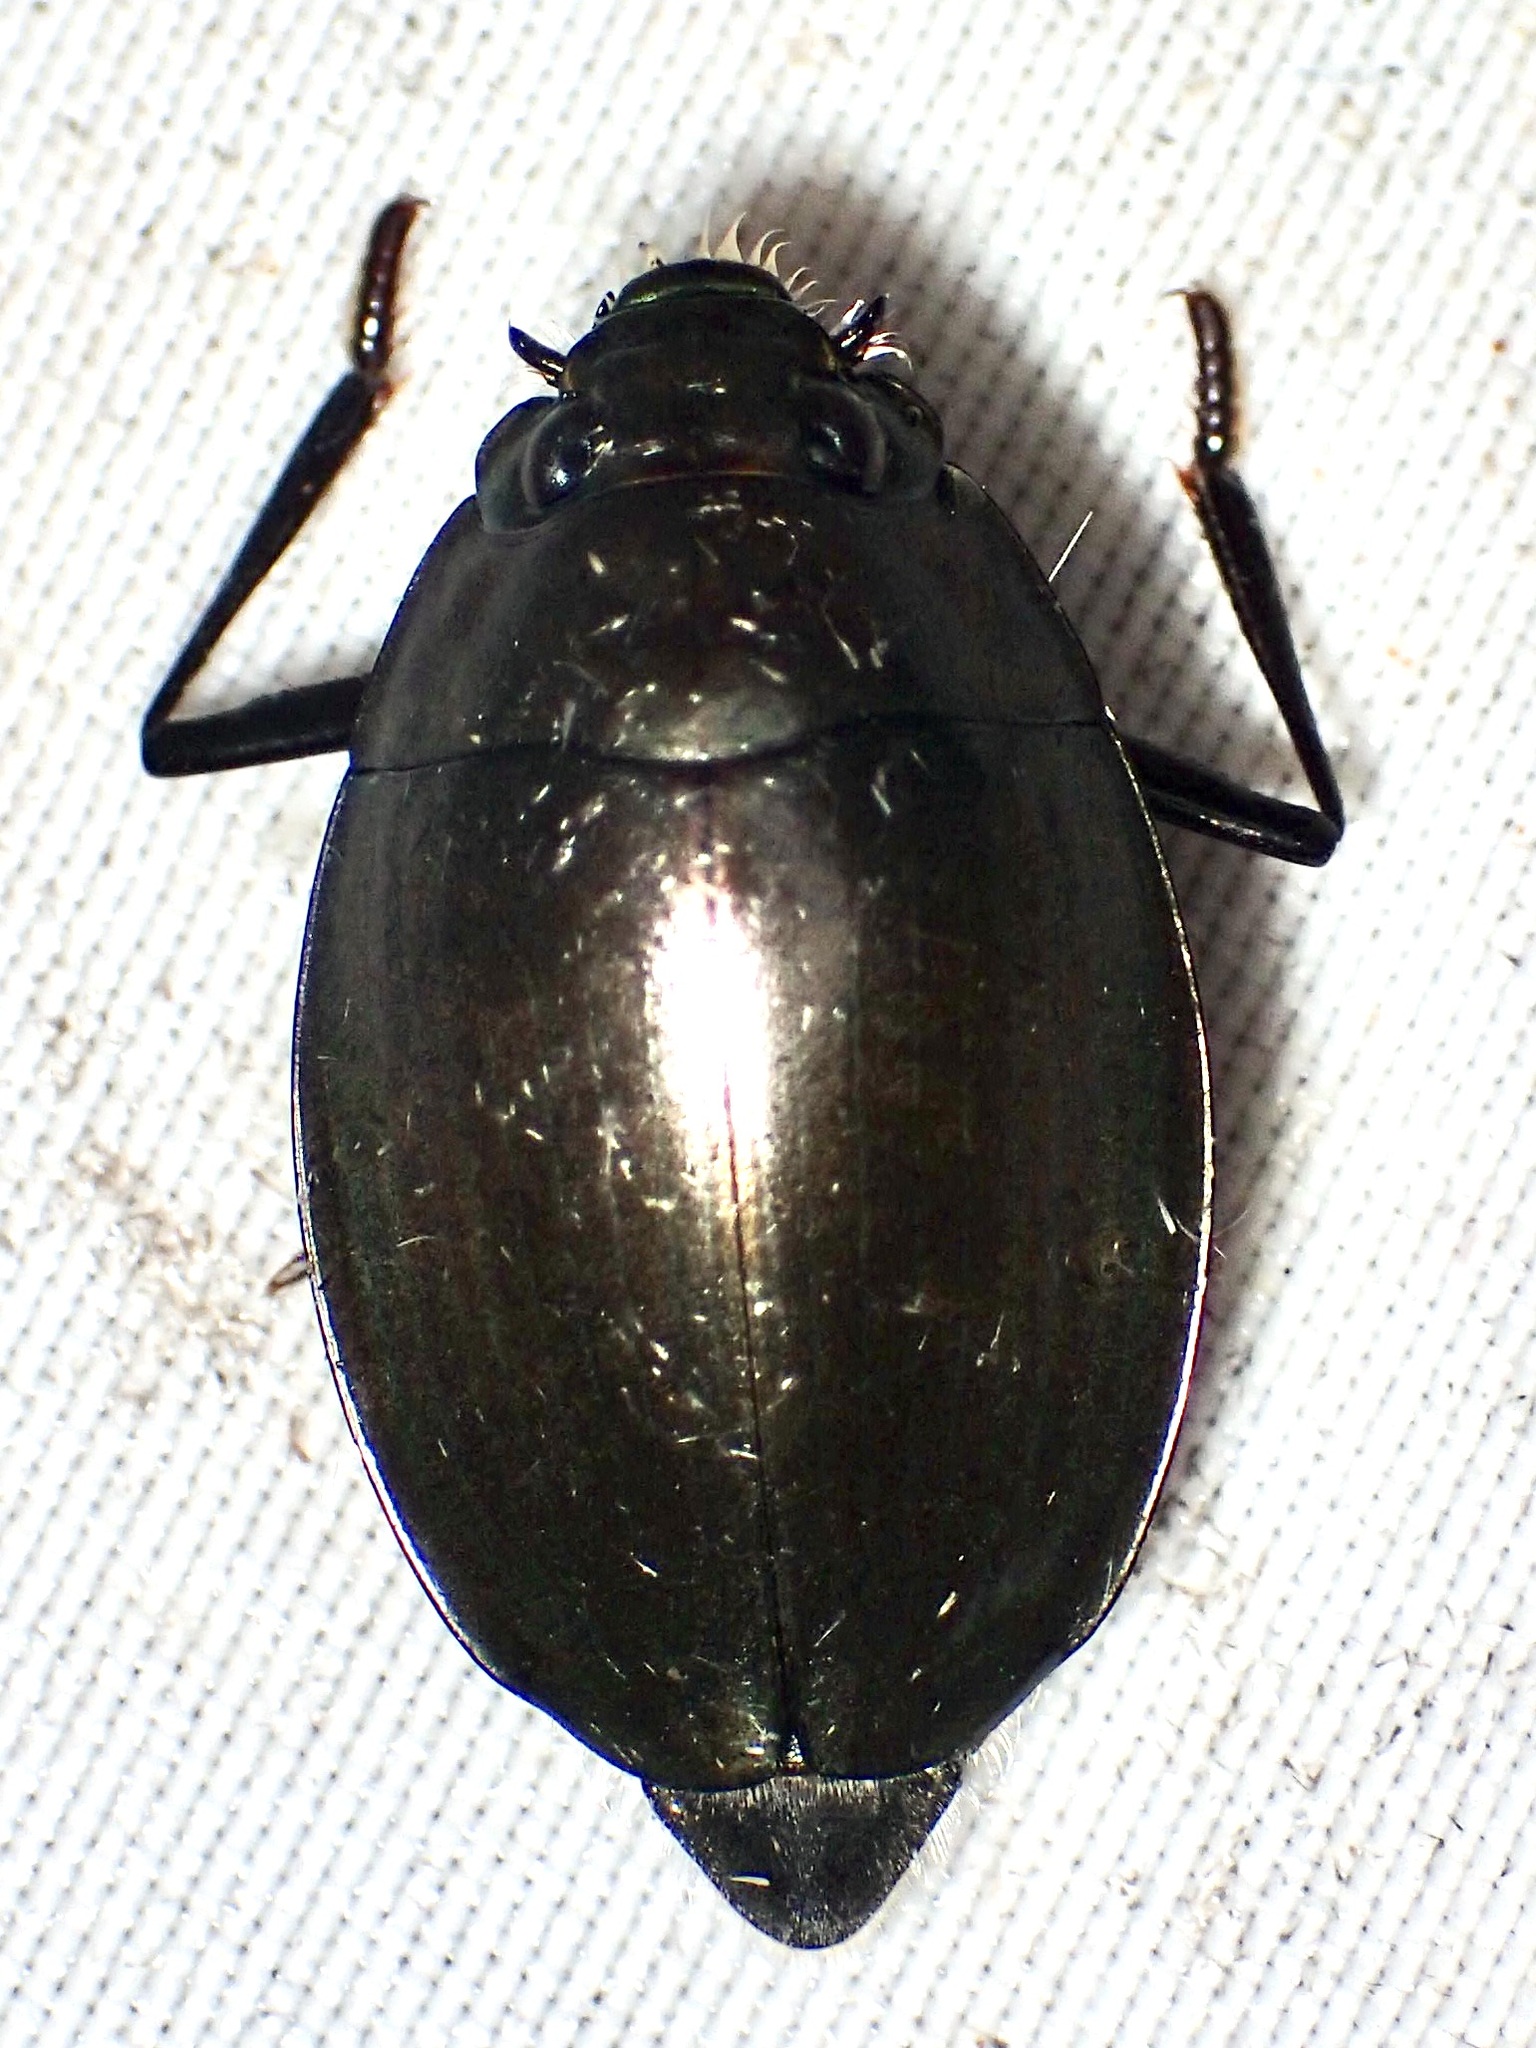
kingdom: Animalia
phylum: Arthropoda
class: Insecta
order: Coleoptera
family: Gyrinidae
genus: Dineutus
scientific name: Dineutus sublineatus
